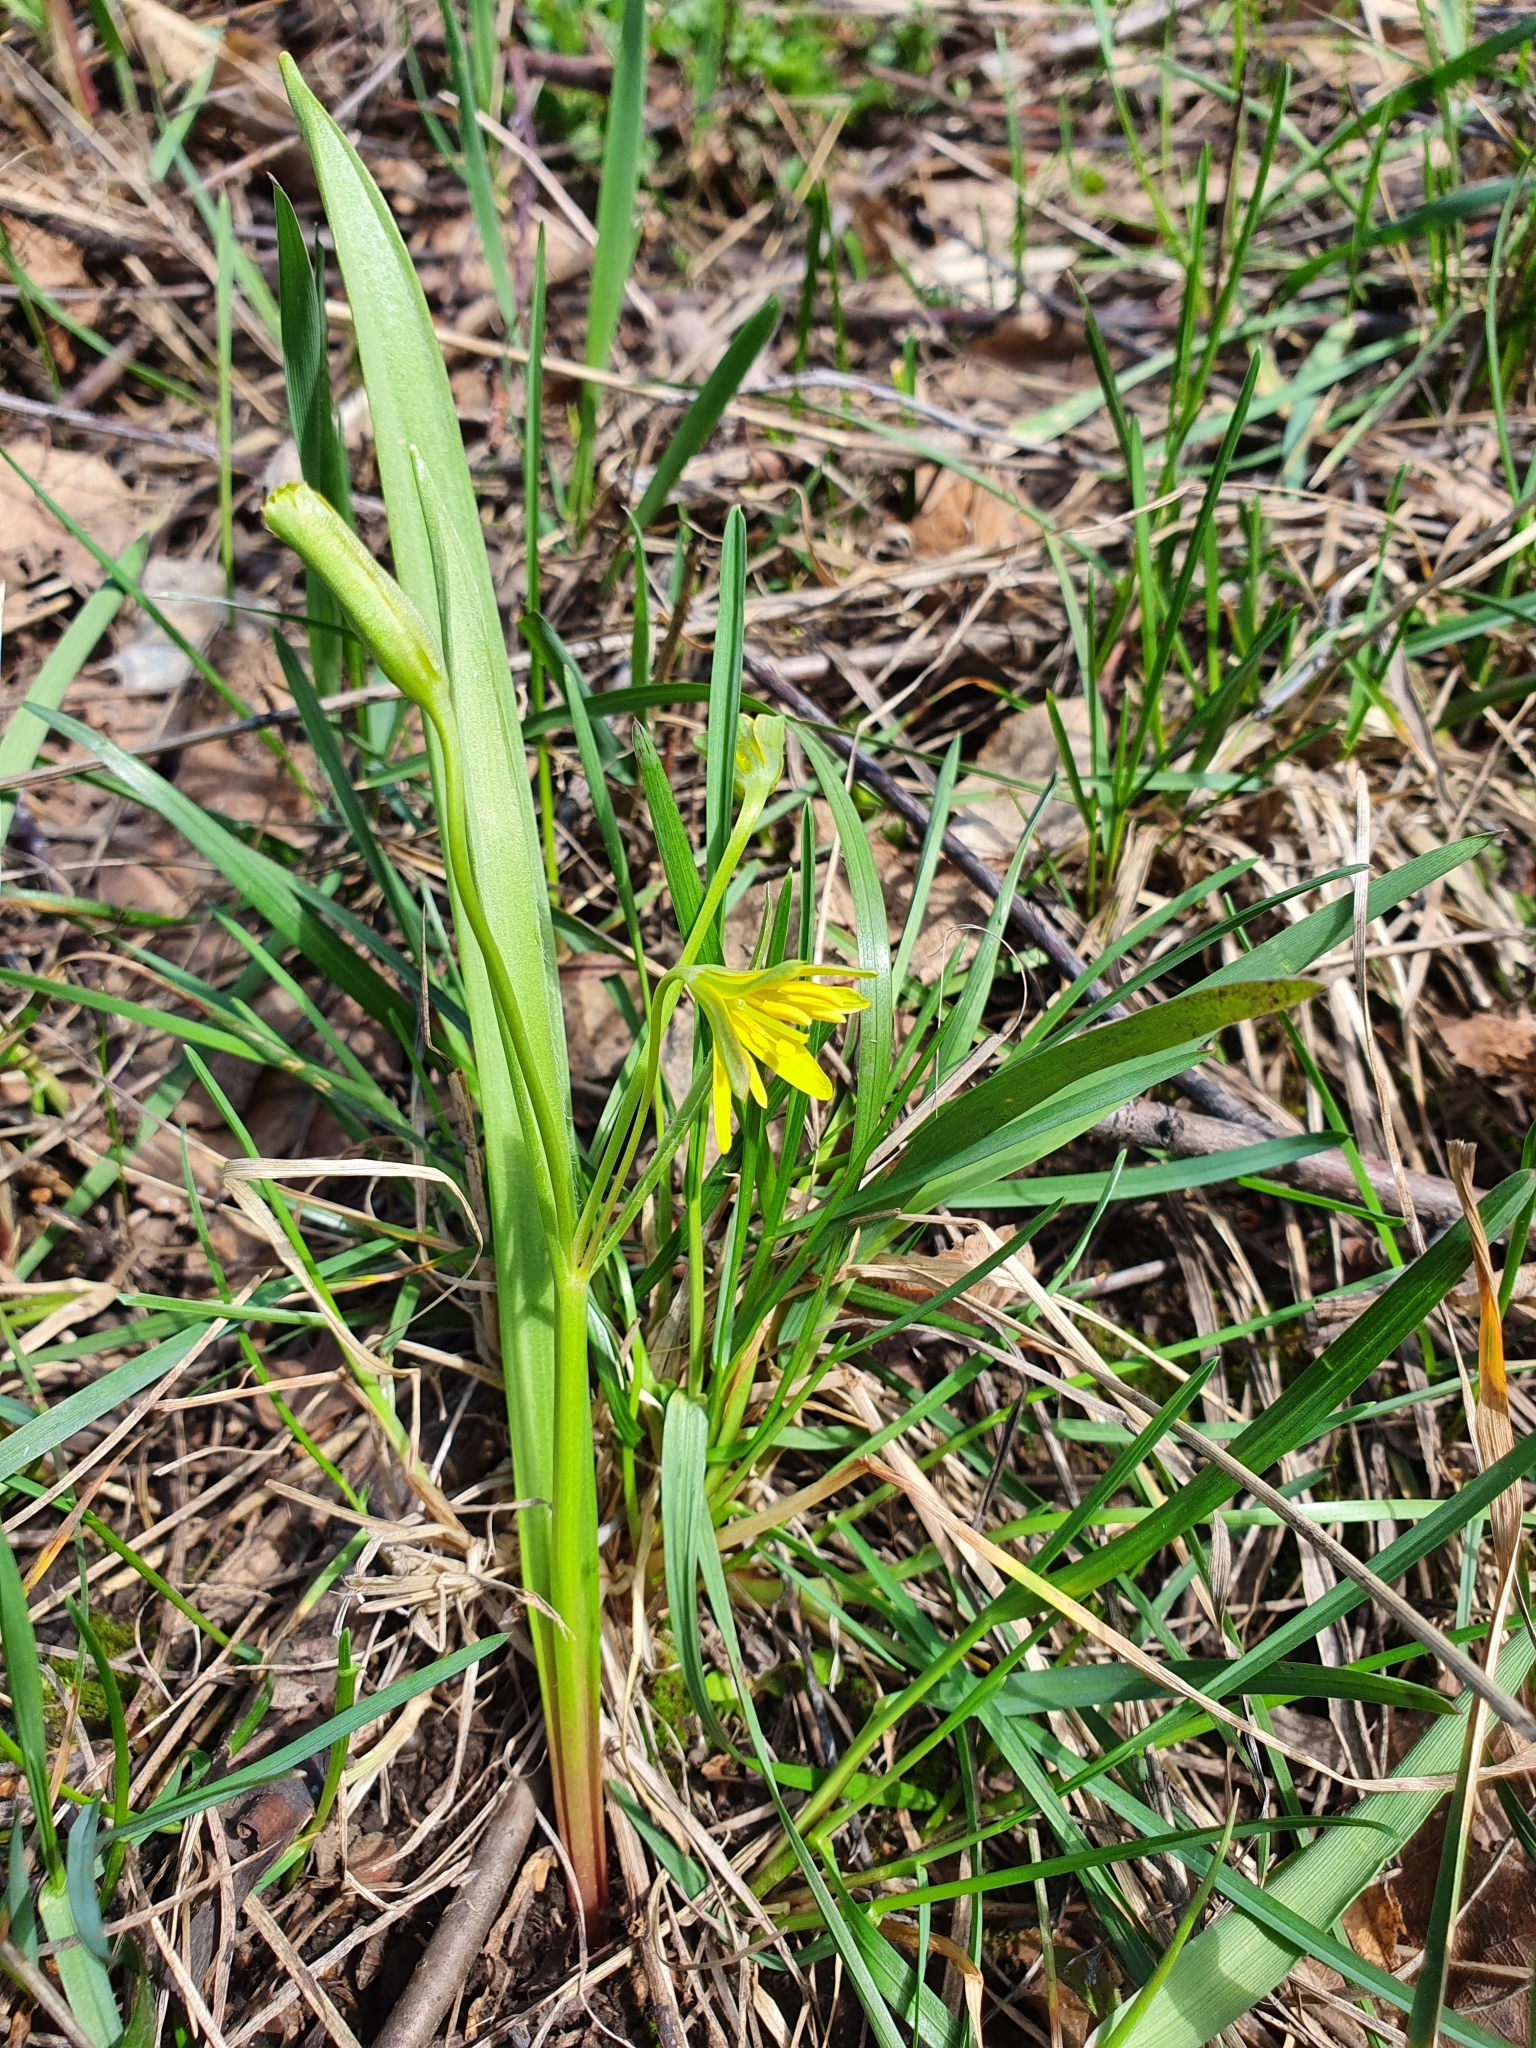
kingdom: Plantae
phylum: Tracheophyta
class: Liliopsida
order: Liliales
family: Liliaceae
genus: Gagea
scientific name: Gagea lutea
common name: Yellow star-of-bethlehem
